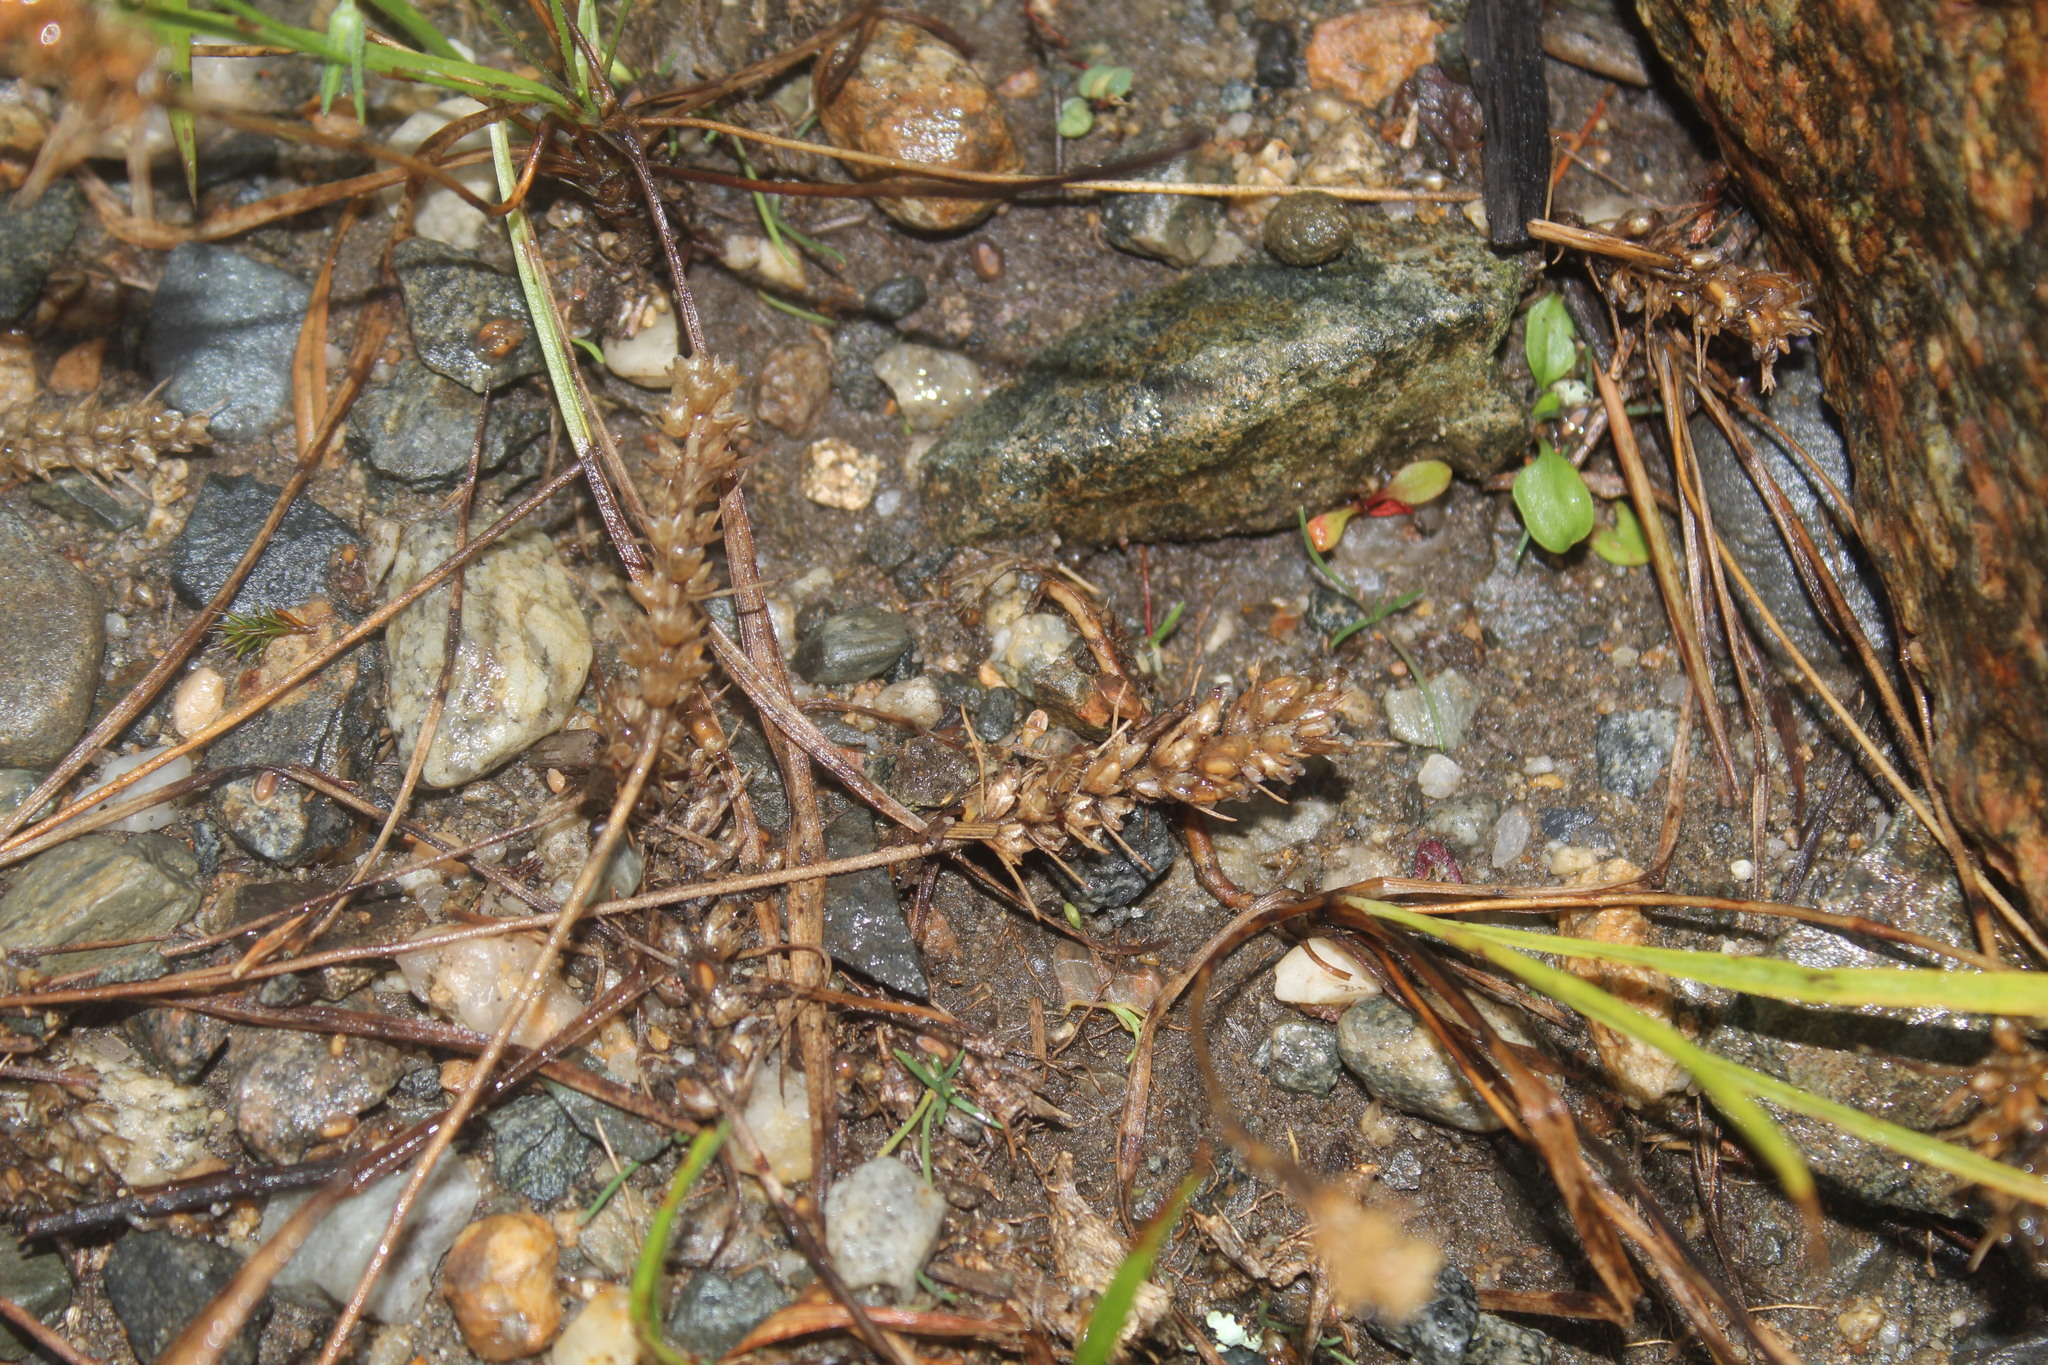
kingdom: Plantae
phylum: Tracheophyta
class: Magnoliopsida
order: Lamiales
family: Plantaginaceae
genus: Plantago
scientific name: Plantago aristata
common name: Bracted plantain
